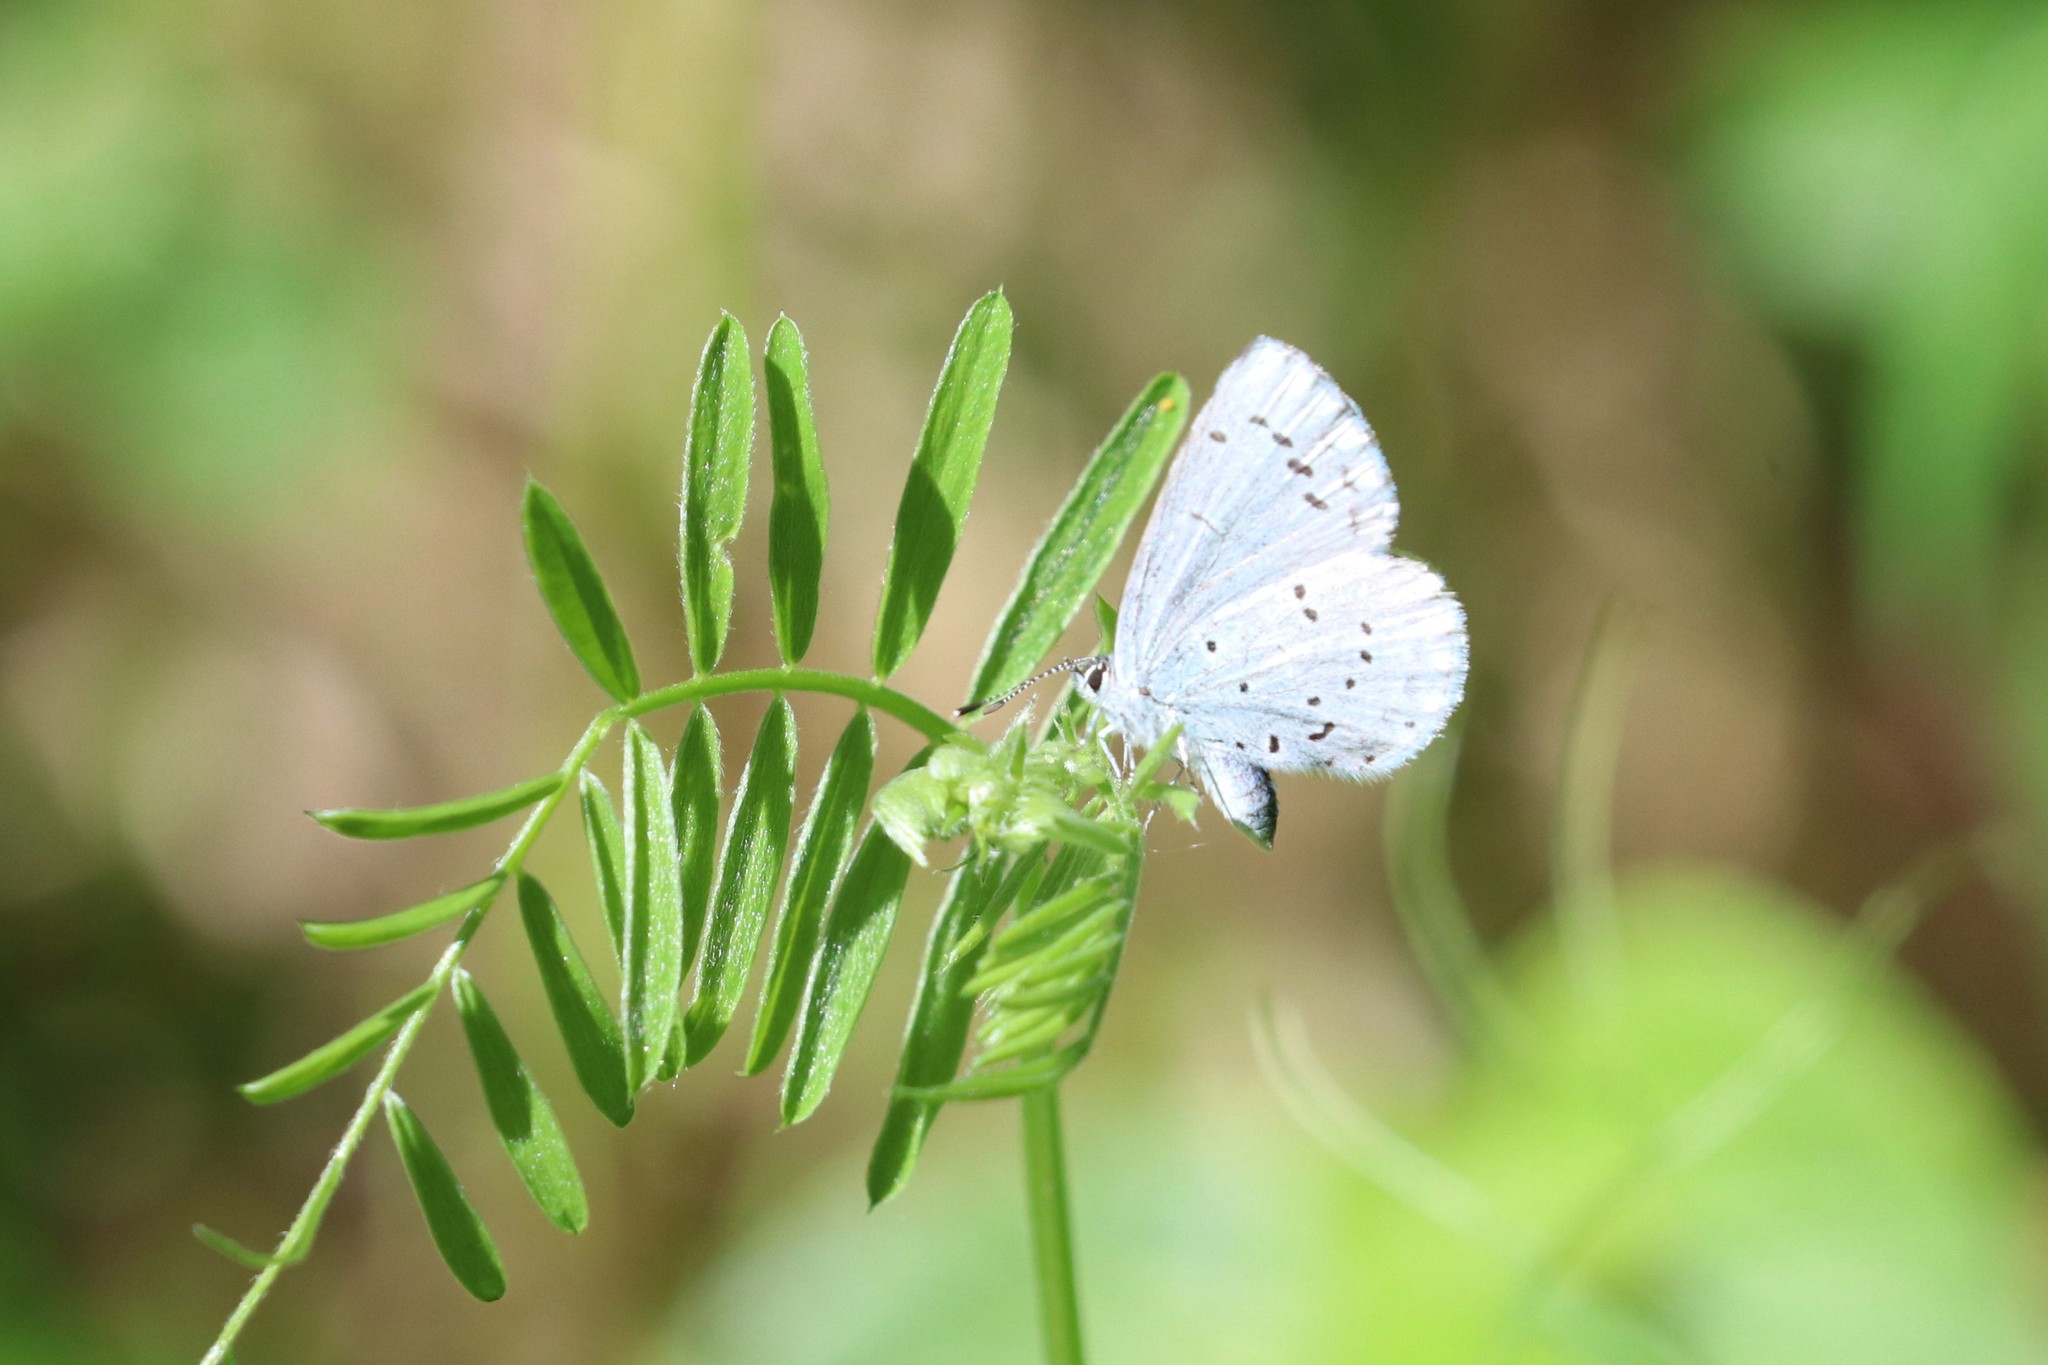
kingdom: Animalia
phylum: Arthropoda
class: Insecta
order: Lepidoptera
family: Lycaenidae
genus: Celastrina
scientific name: Celastrina argiolus
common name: Holly blue
